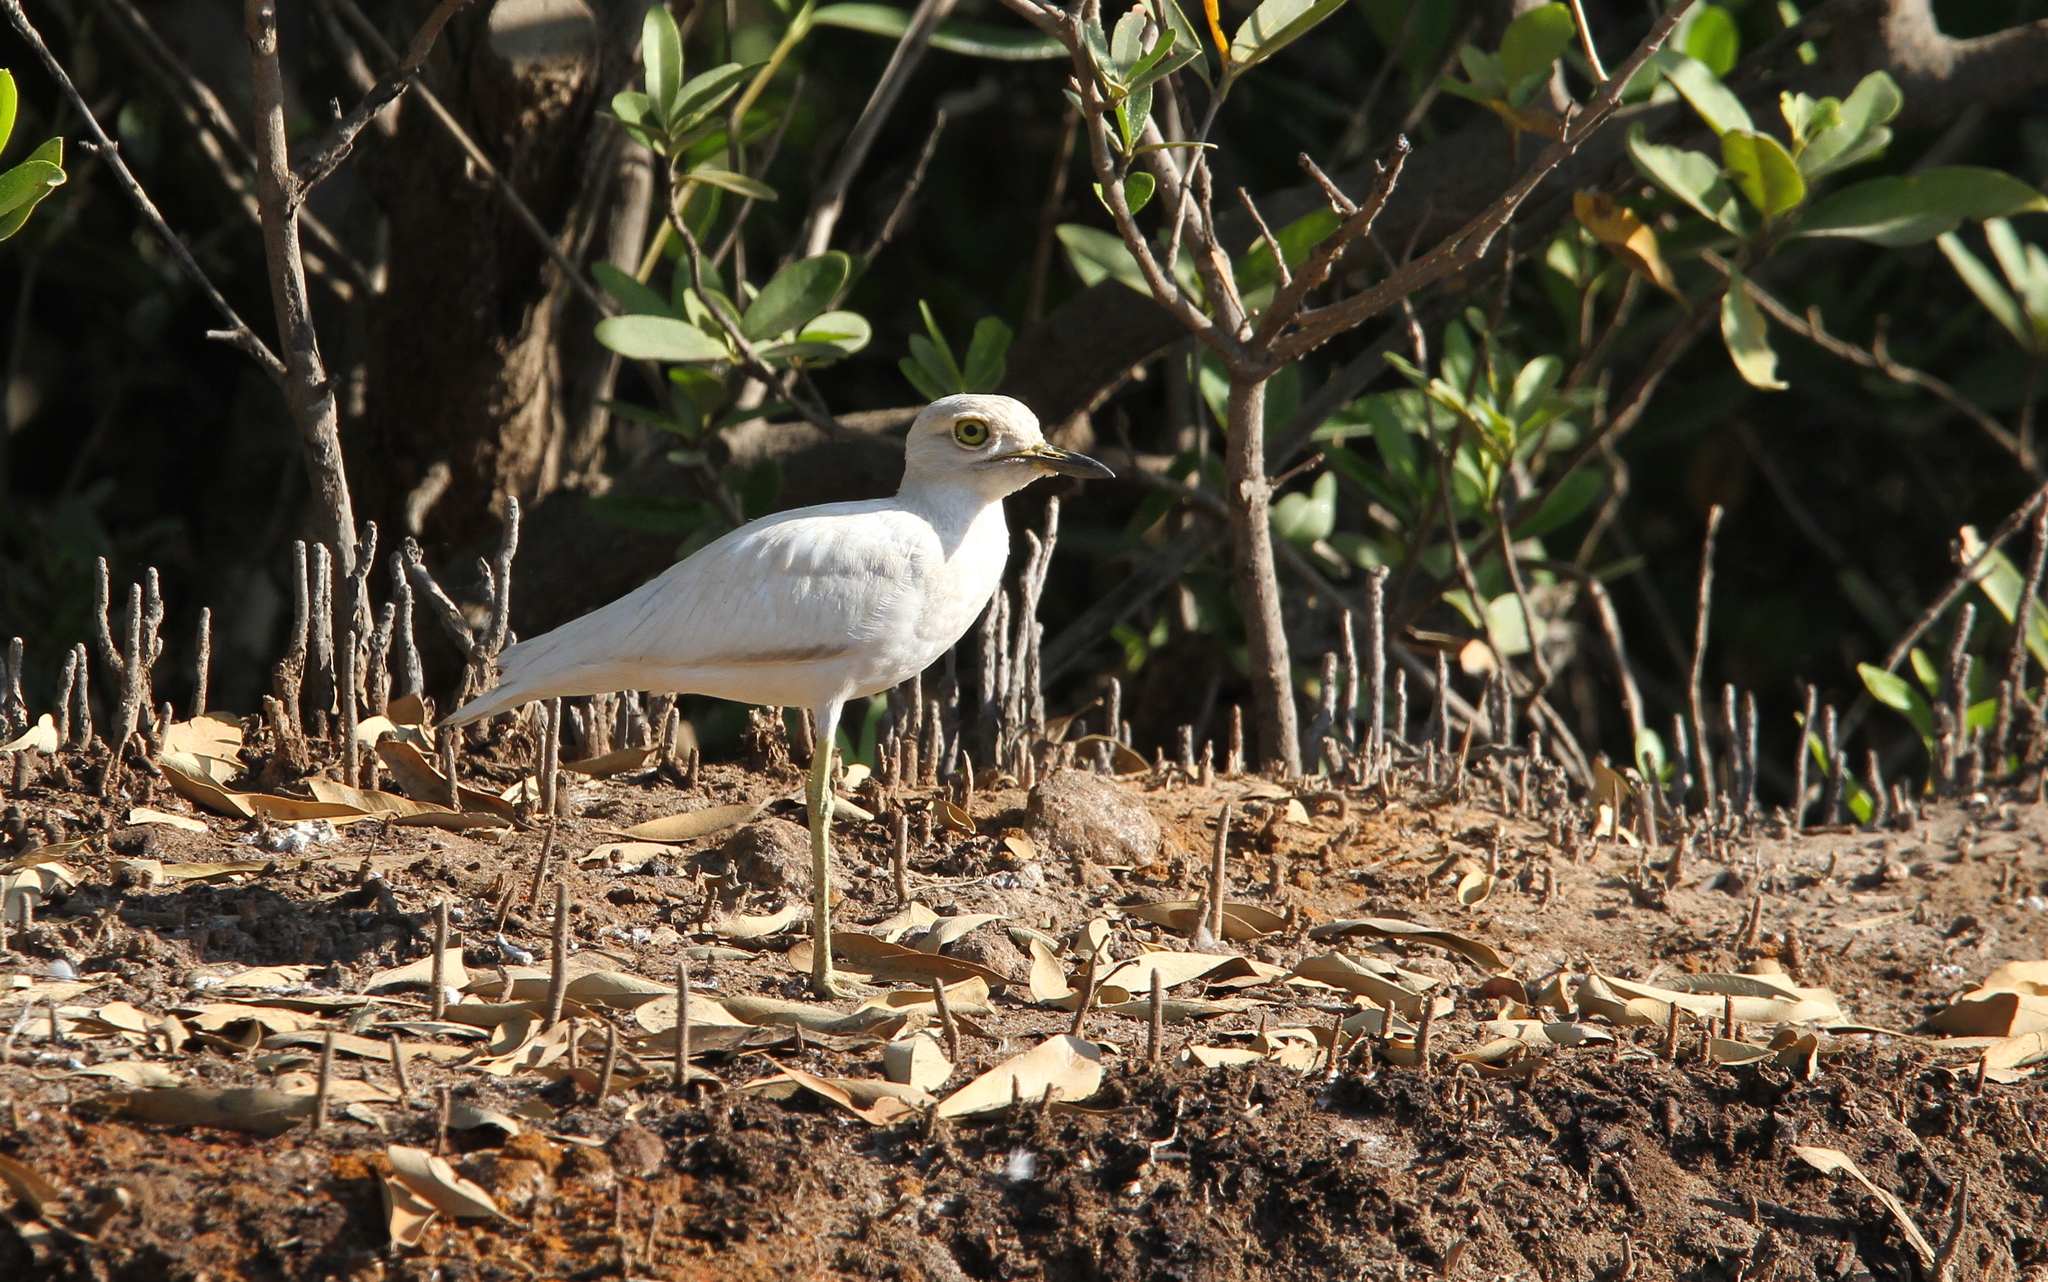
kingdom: Animalia
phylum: Chordata
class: Aves
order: Charadriiformes
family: Burhinidae
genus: Burhinus
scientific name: Burhinus senegalensis
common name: Senegal thick-knee
